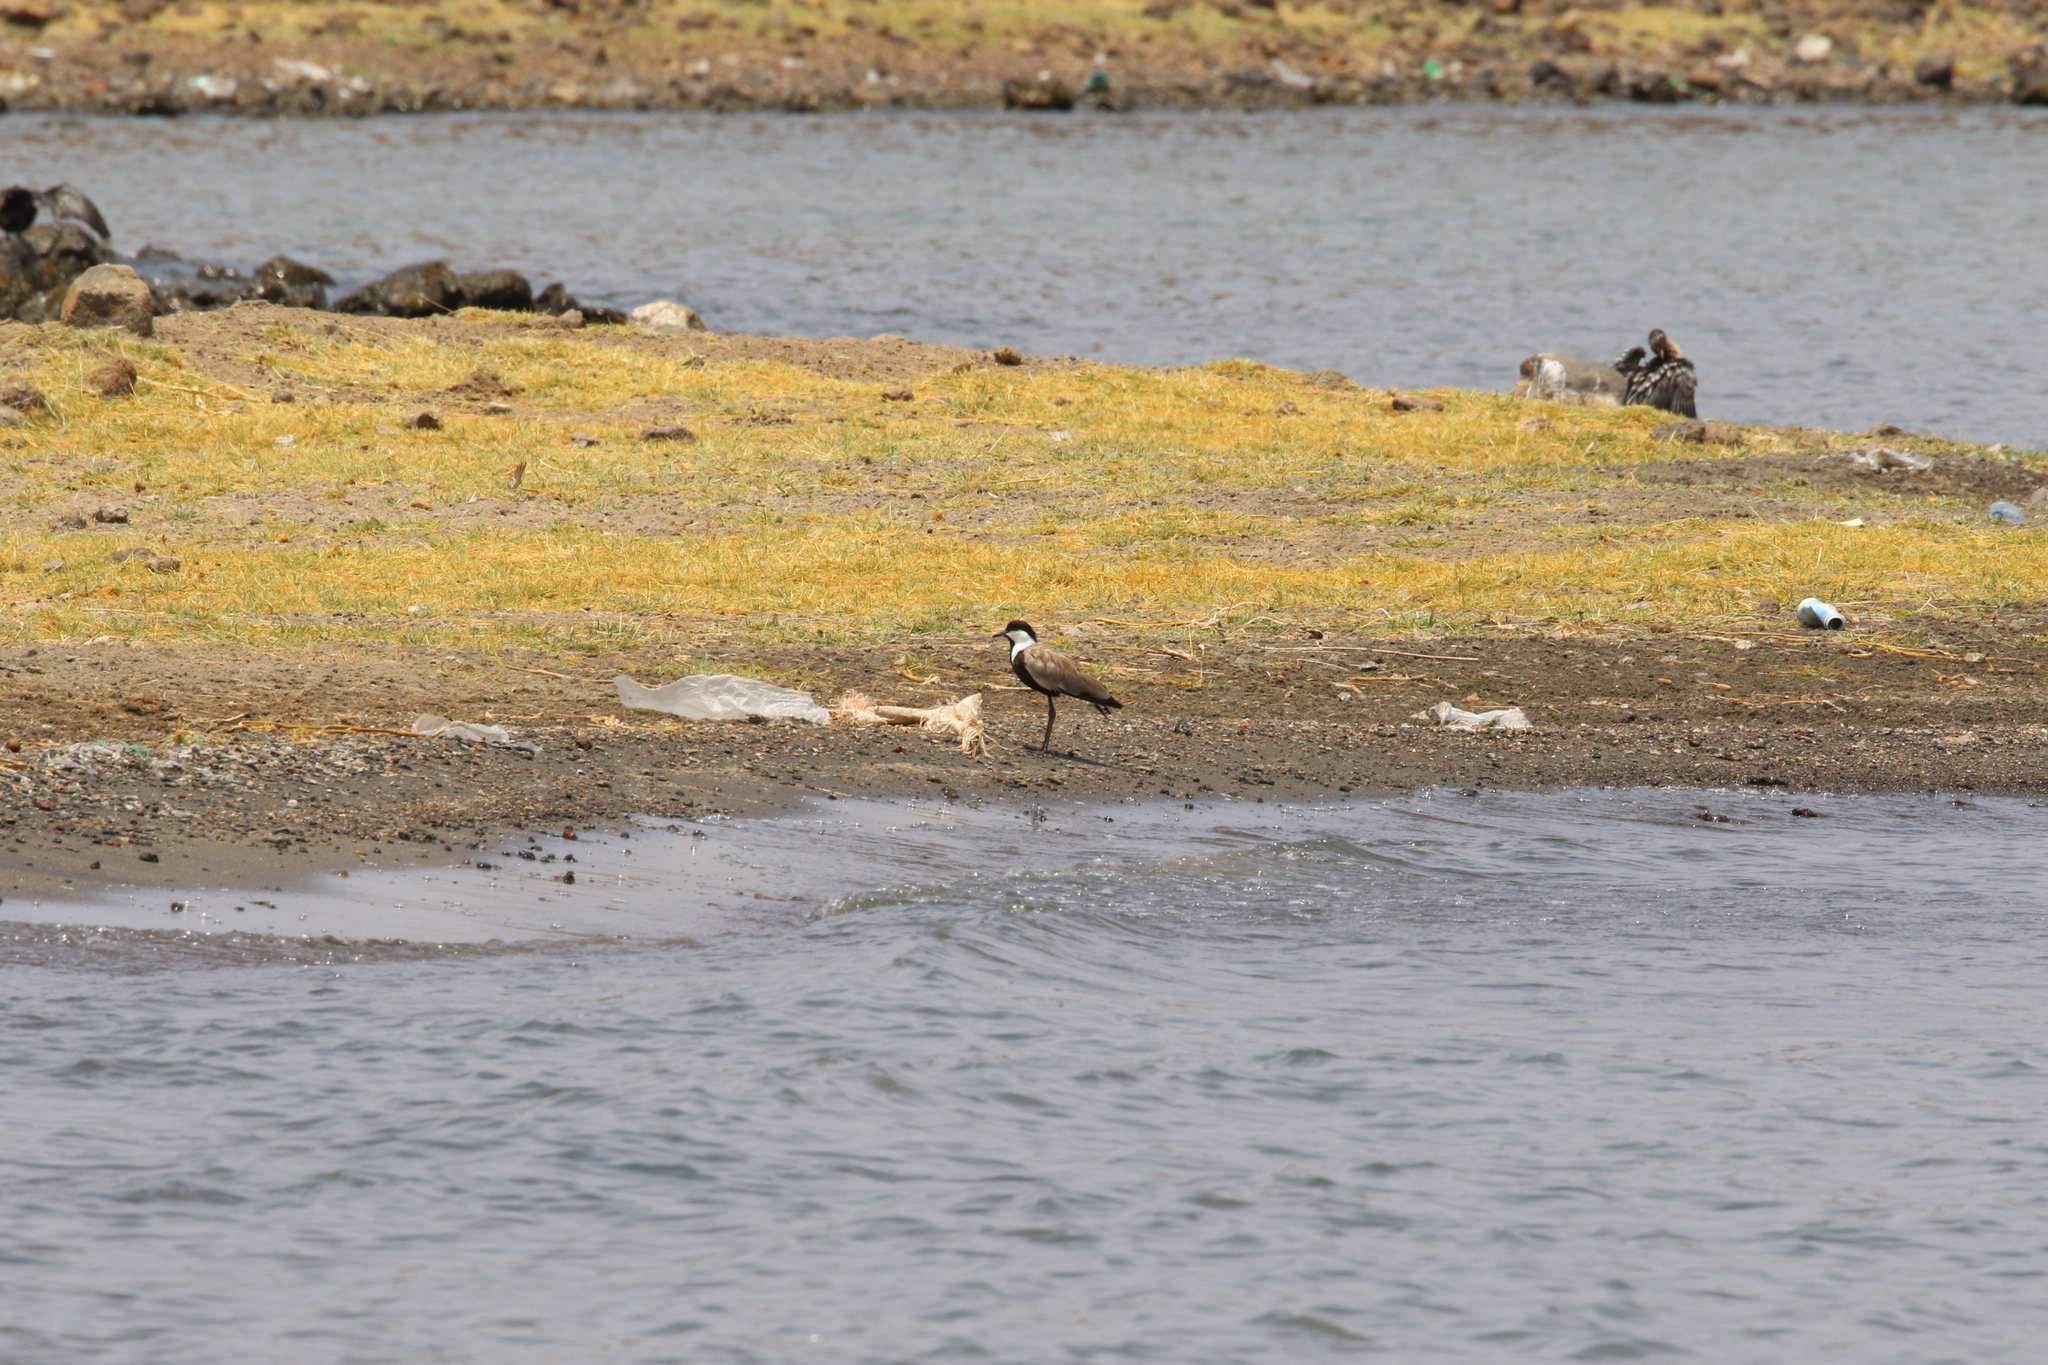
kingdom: Animalia
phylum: Chordata
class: Aves
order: Charadriiformes
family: Charadriidae
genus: Vanellus
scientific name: Vanellus spinosus
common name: Spur-winged lapwing
